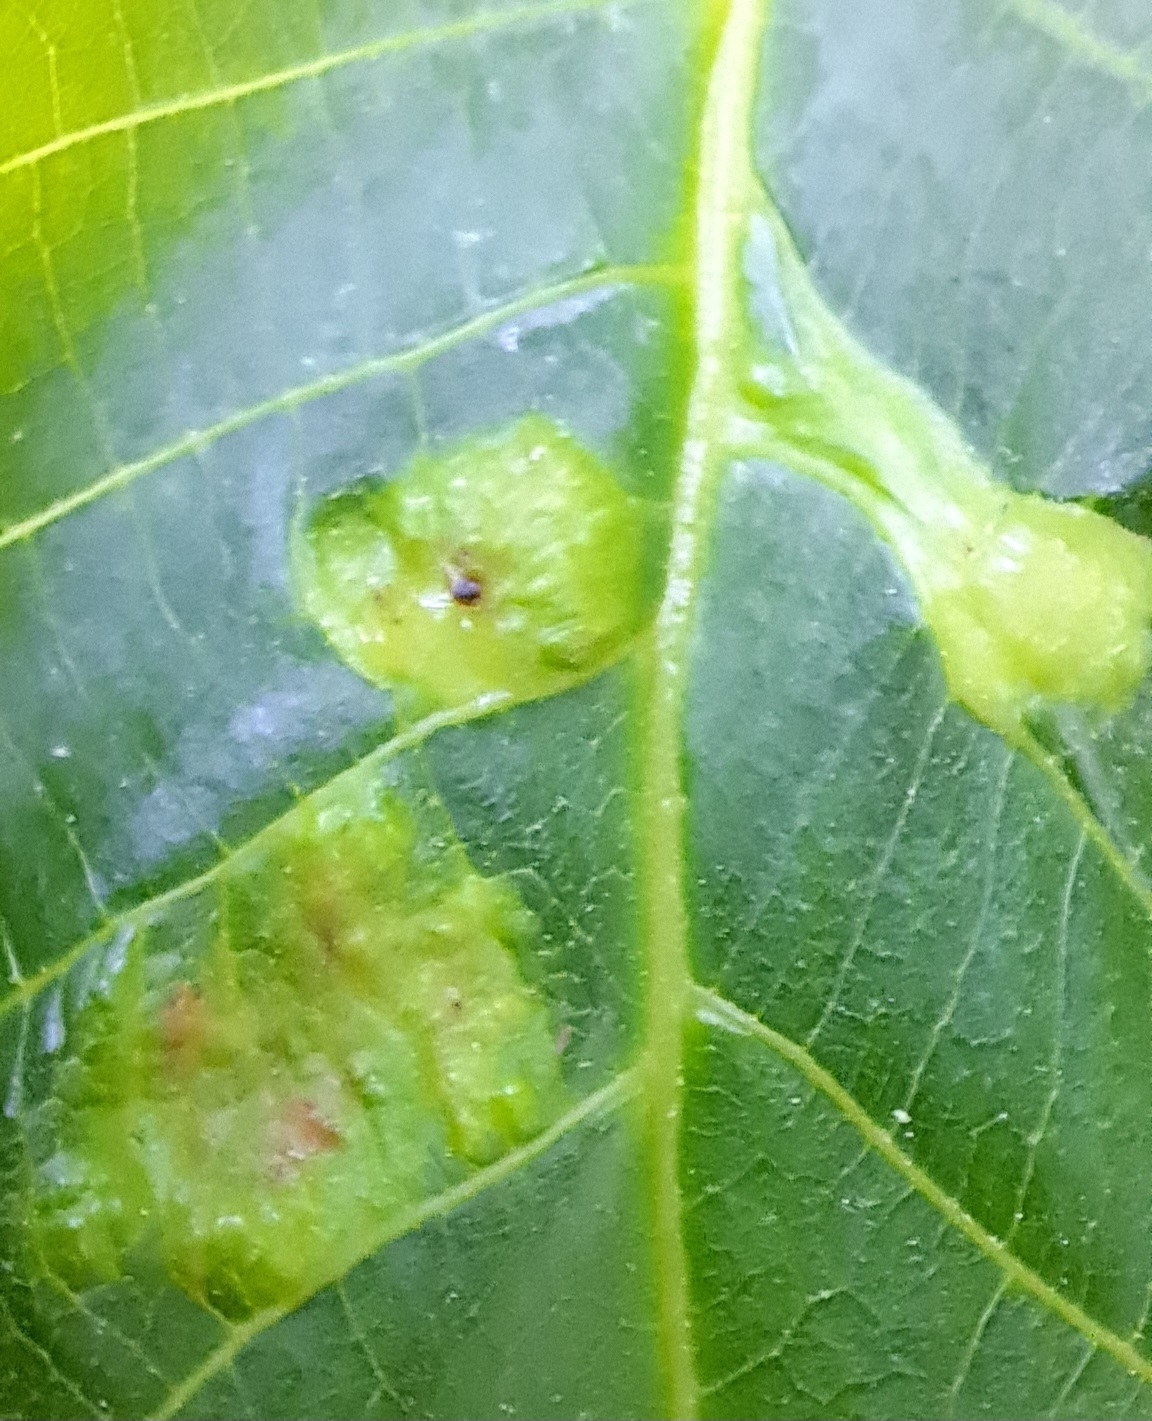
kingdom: Animalia
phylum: Arthropoda
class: Arachnida
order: Trombidiformes
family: Eriophyidae
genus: Aceria
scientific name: Aceria erinea
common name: Persian walnut erineum mite
